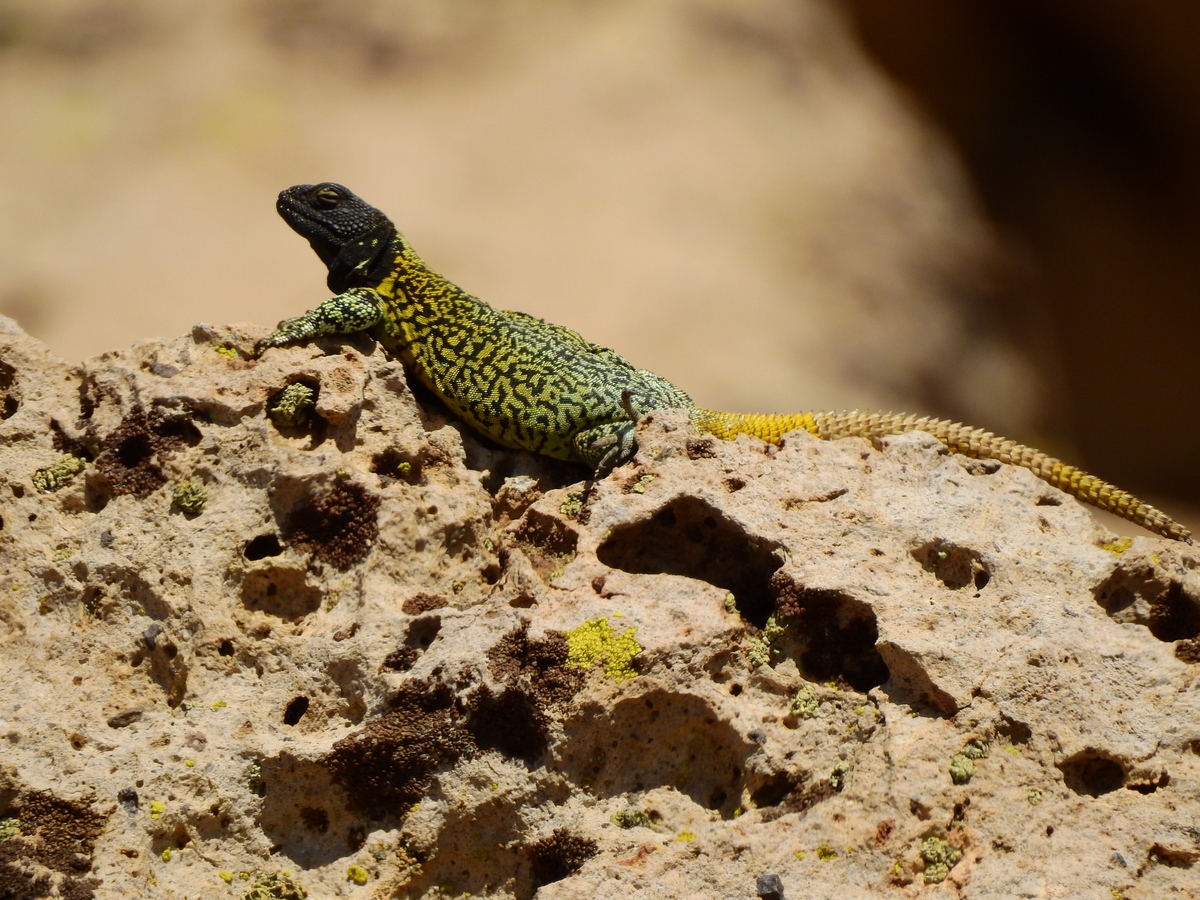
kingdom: Animalia
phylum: Chordata
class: Squamata
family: Liolaemidae
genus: Phymaturus
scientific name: Phymaturus verdugo
